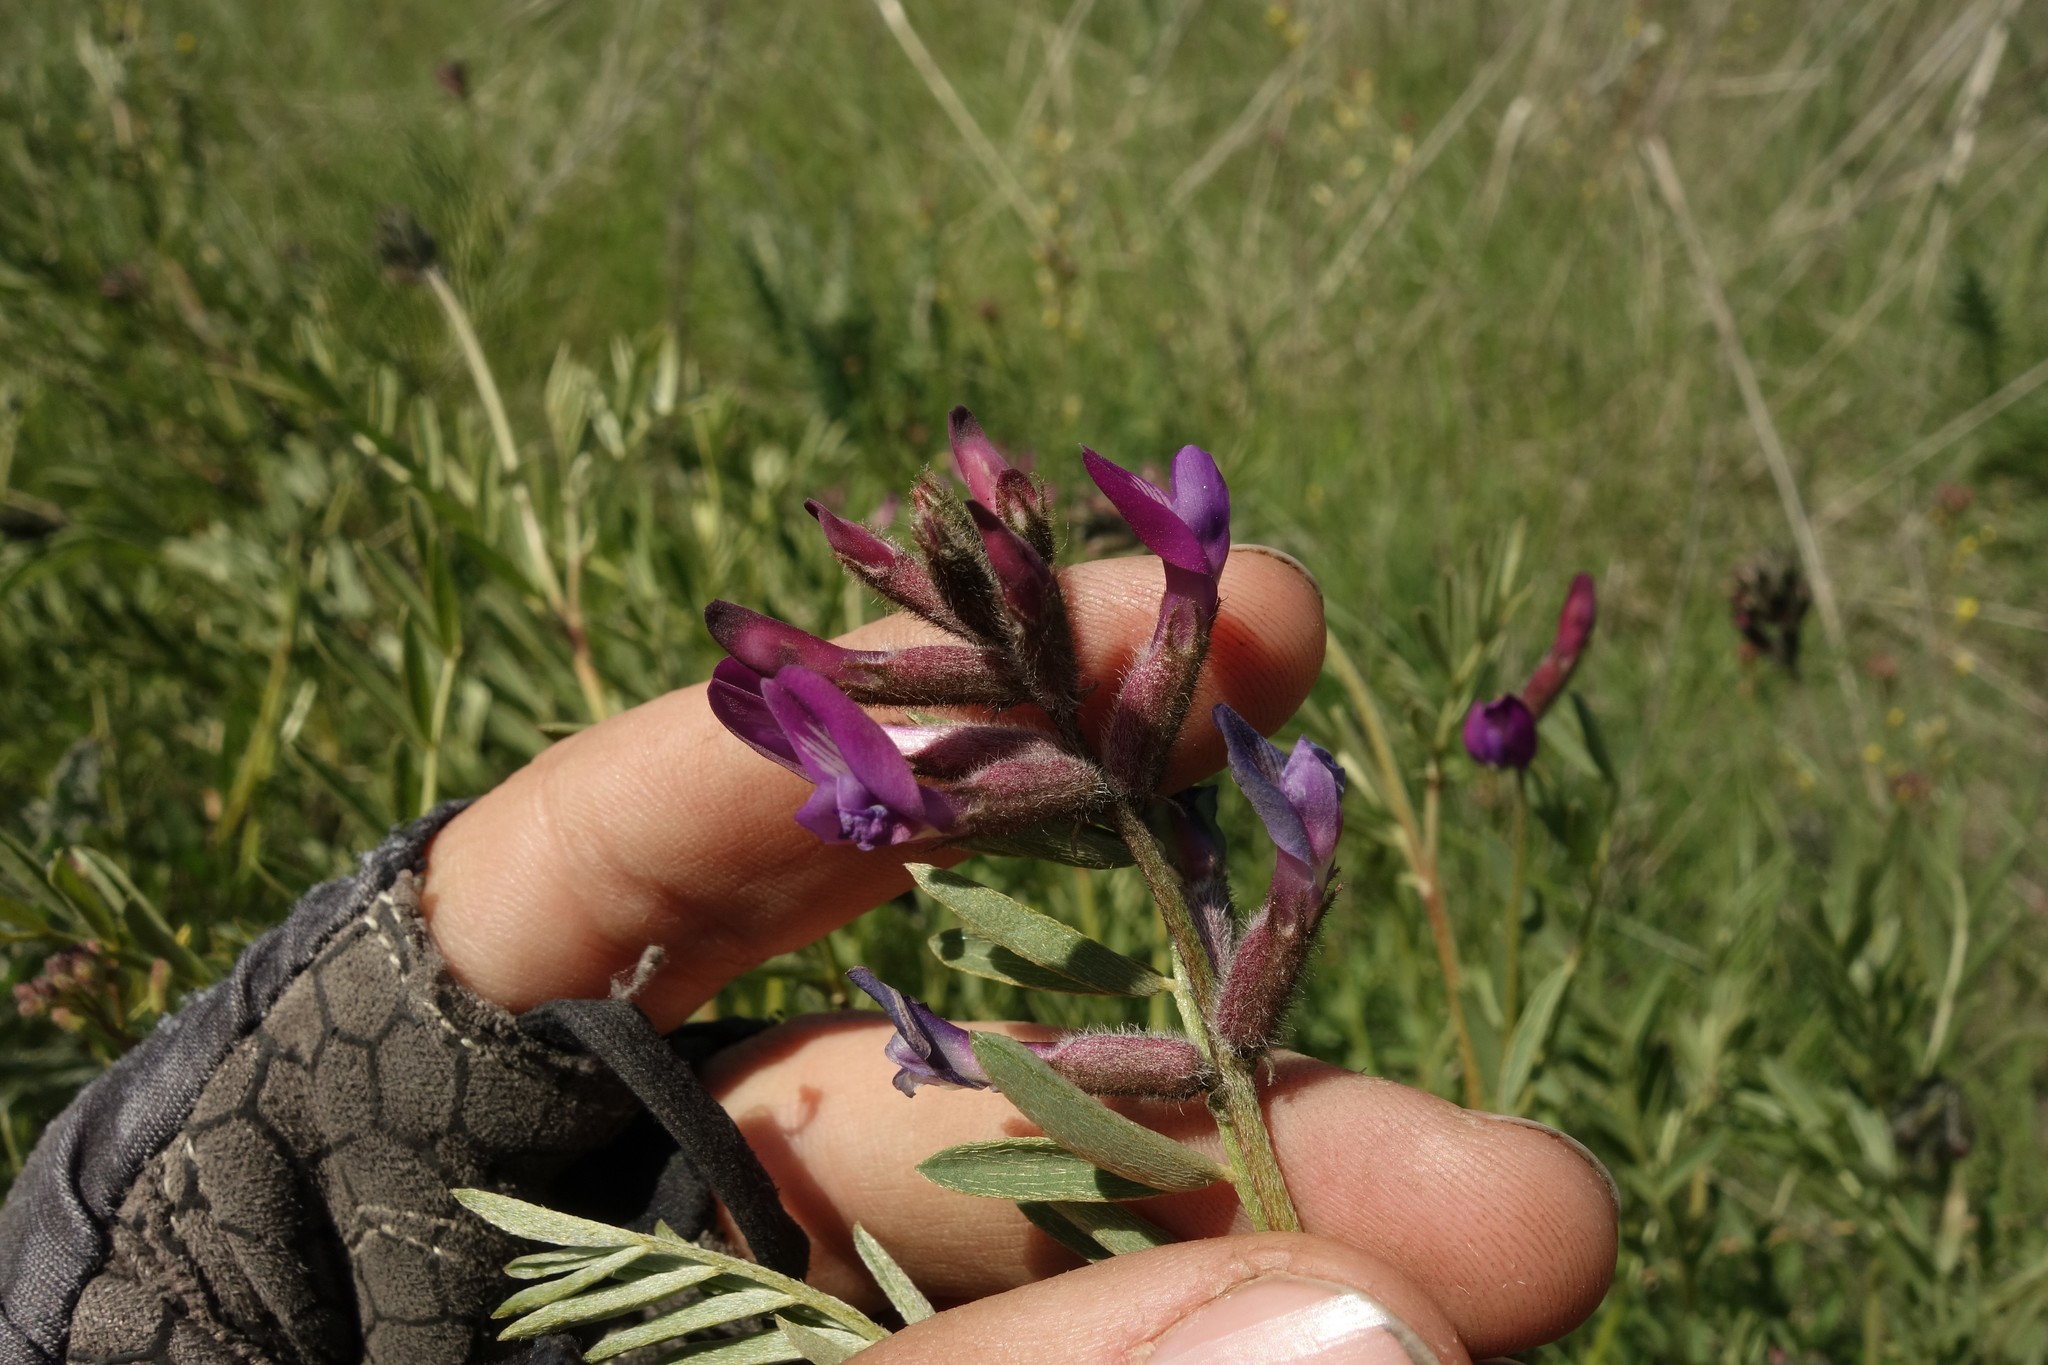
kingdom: Plantae
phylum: Tracheophyta
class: Magnoliopsida
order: Fabales
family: Fabaceae
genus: Astragalus
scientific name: Astragalus brachylobus
